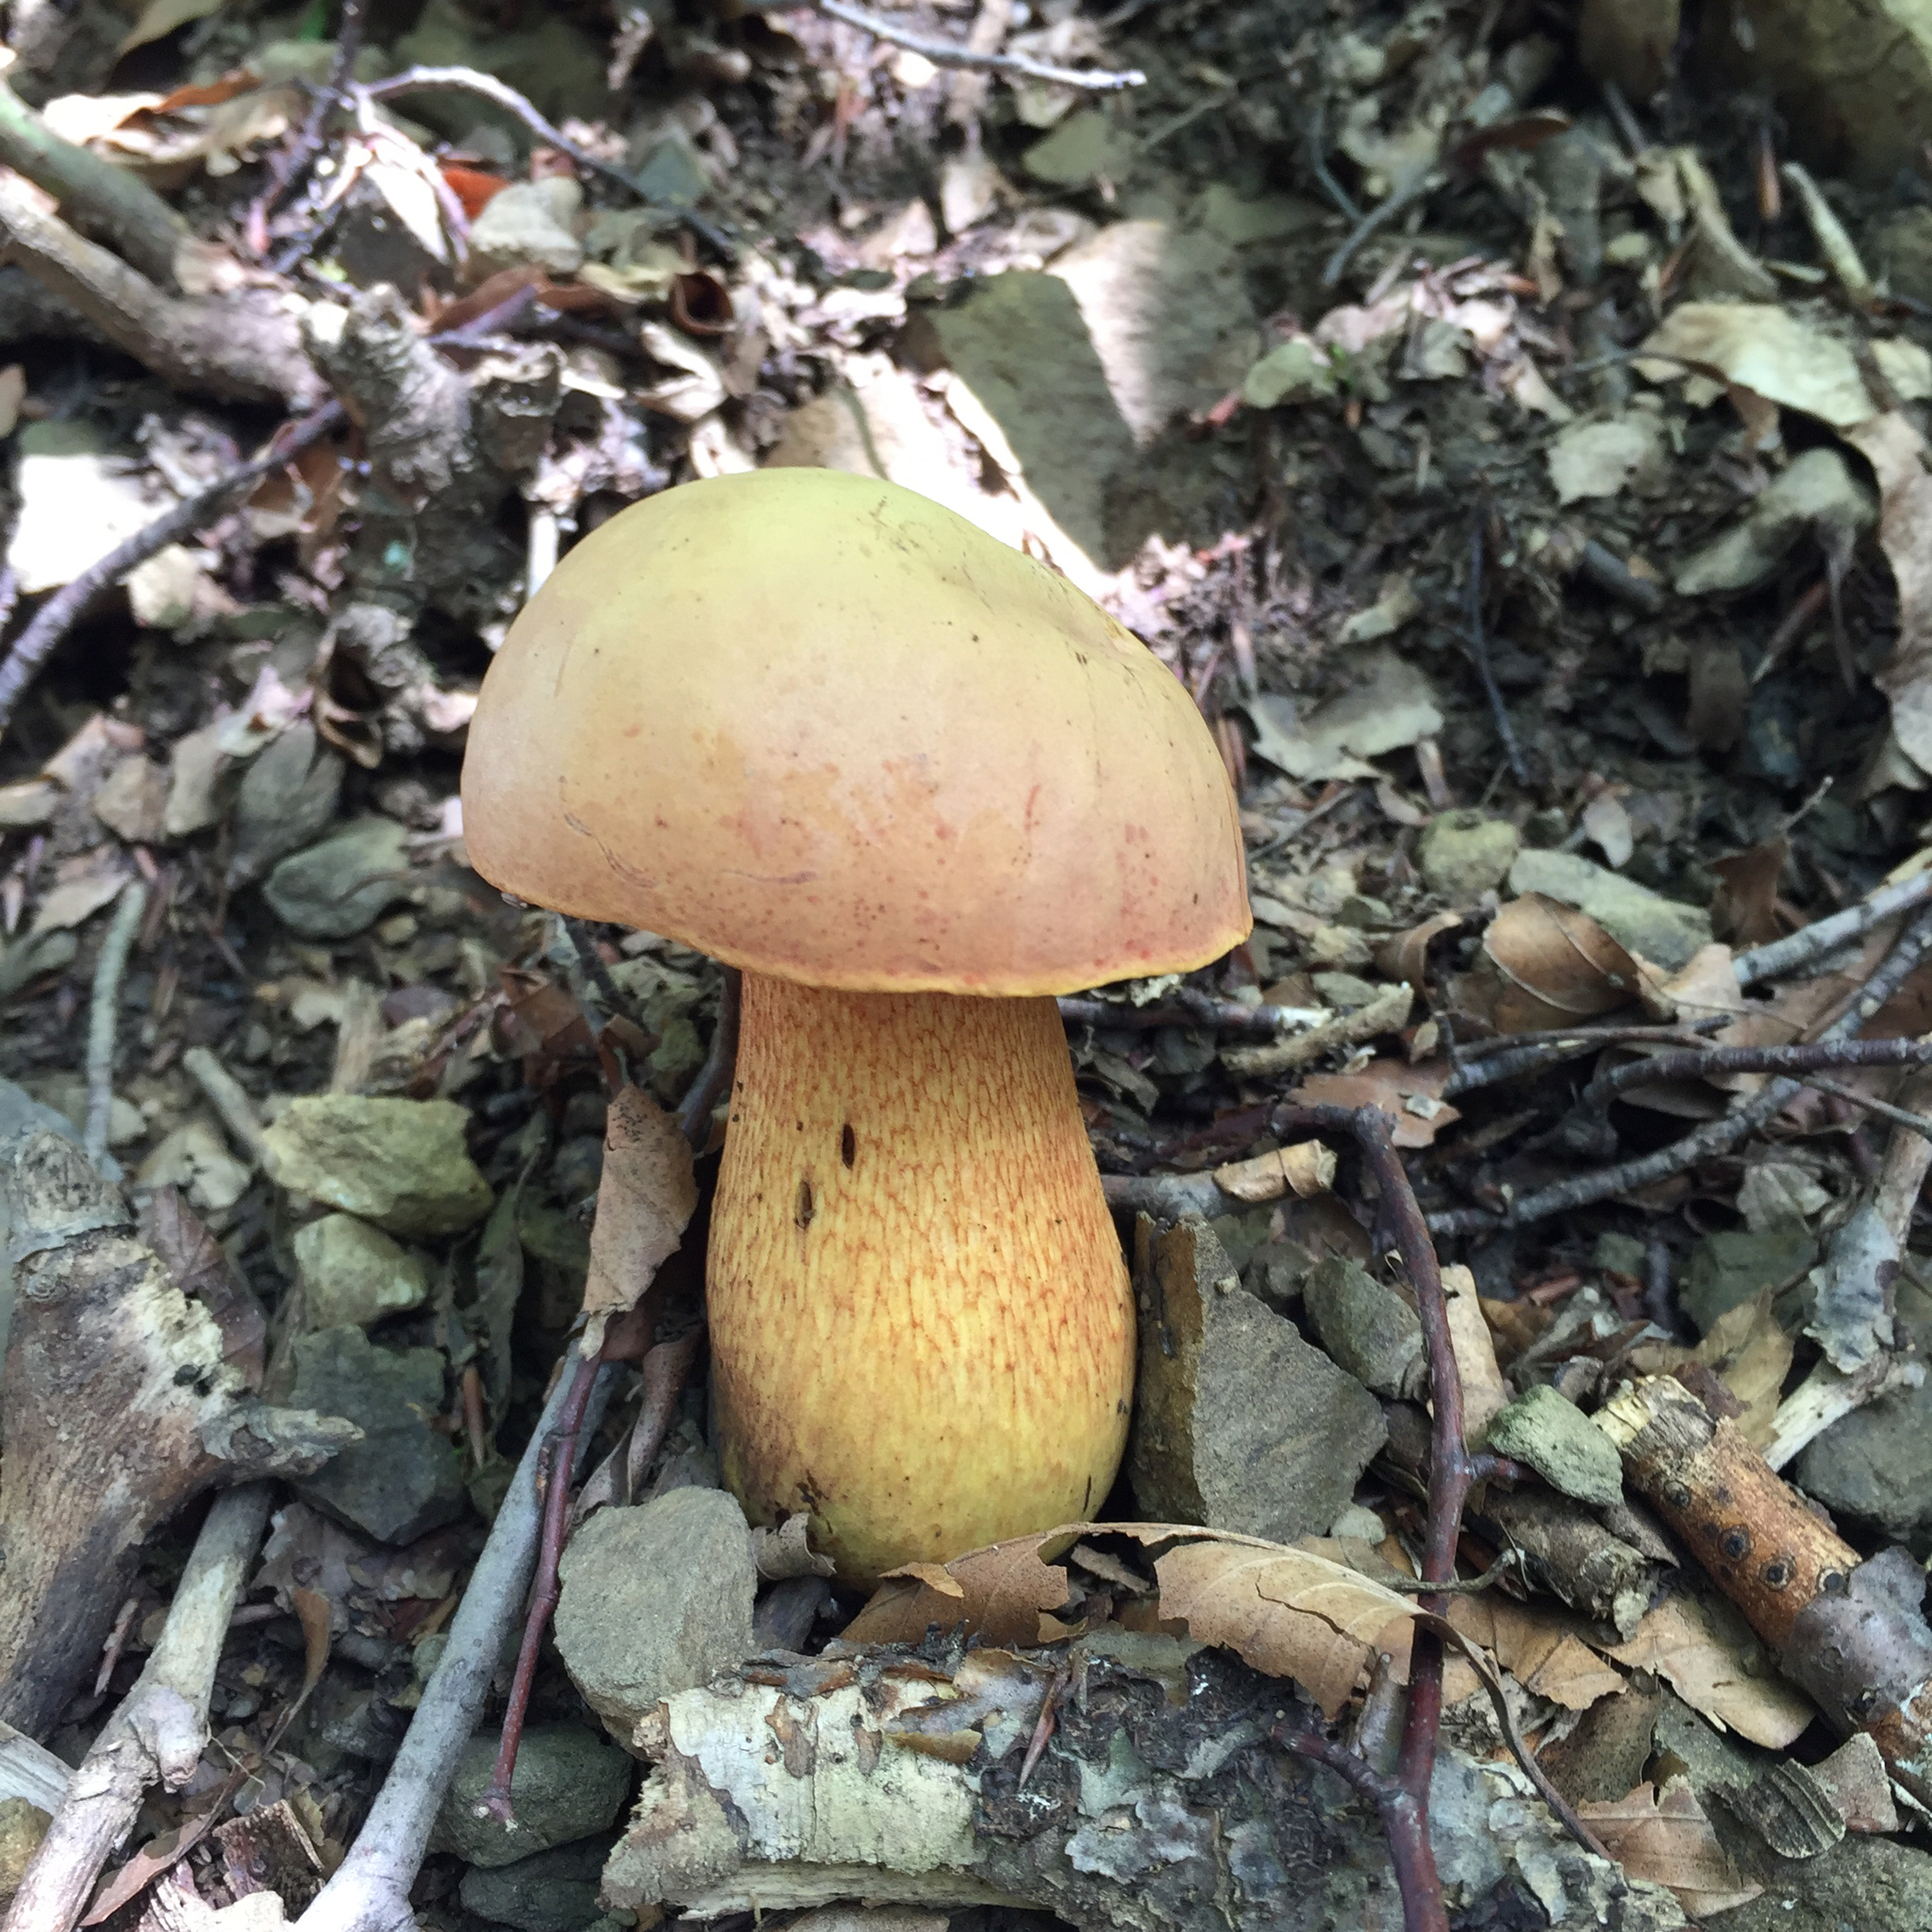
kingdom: Fungi
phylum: Basidiomycota
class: Agaricomycetes
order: Boletales
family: Boletaceae
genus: Suillellus
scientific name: Suillellus luridus
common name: Lurid bolete
